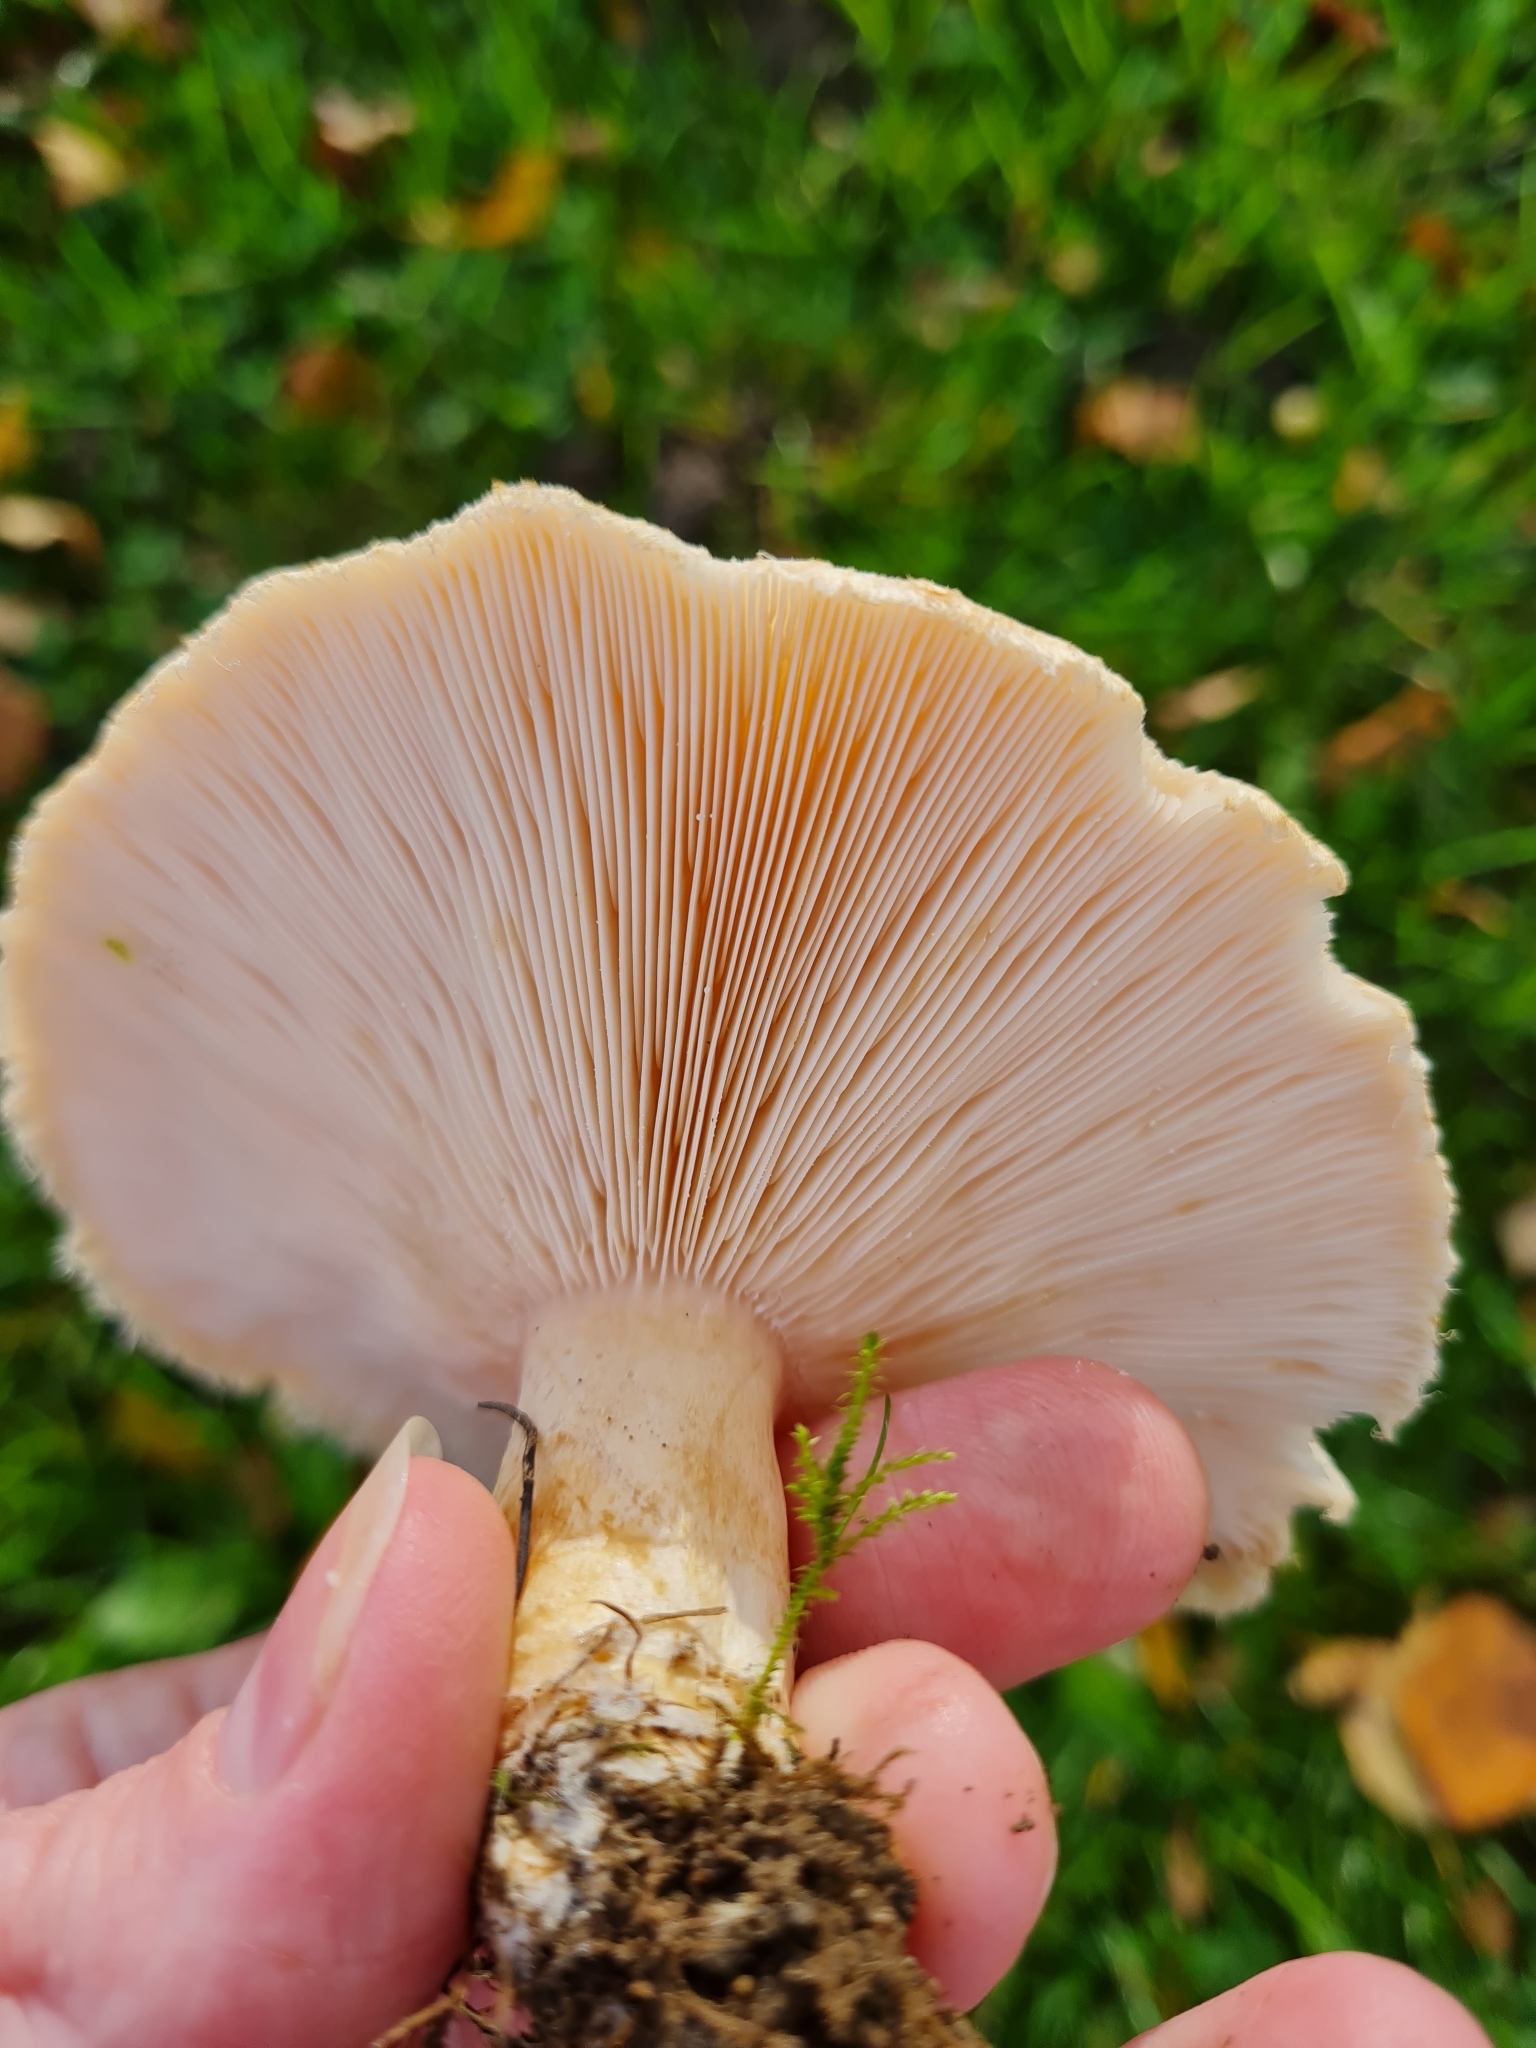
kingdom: Fungi
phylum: Basidiomycota
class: Agaricomycetes
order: Russulales
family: Russulaceae
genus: Lactarius
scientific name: Lactarius pubescens
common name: Bearded milkcap
